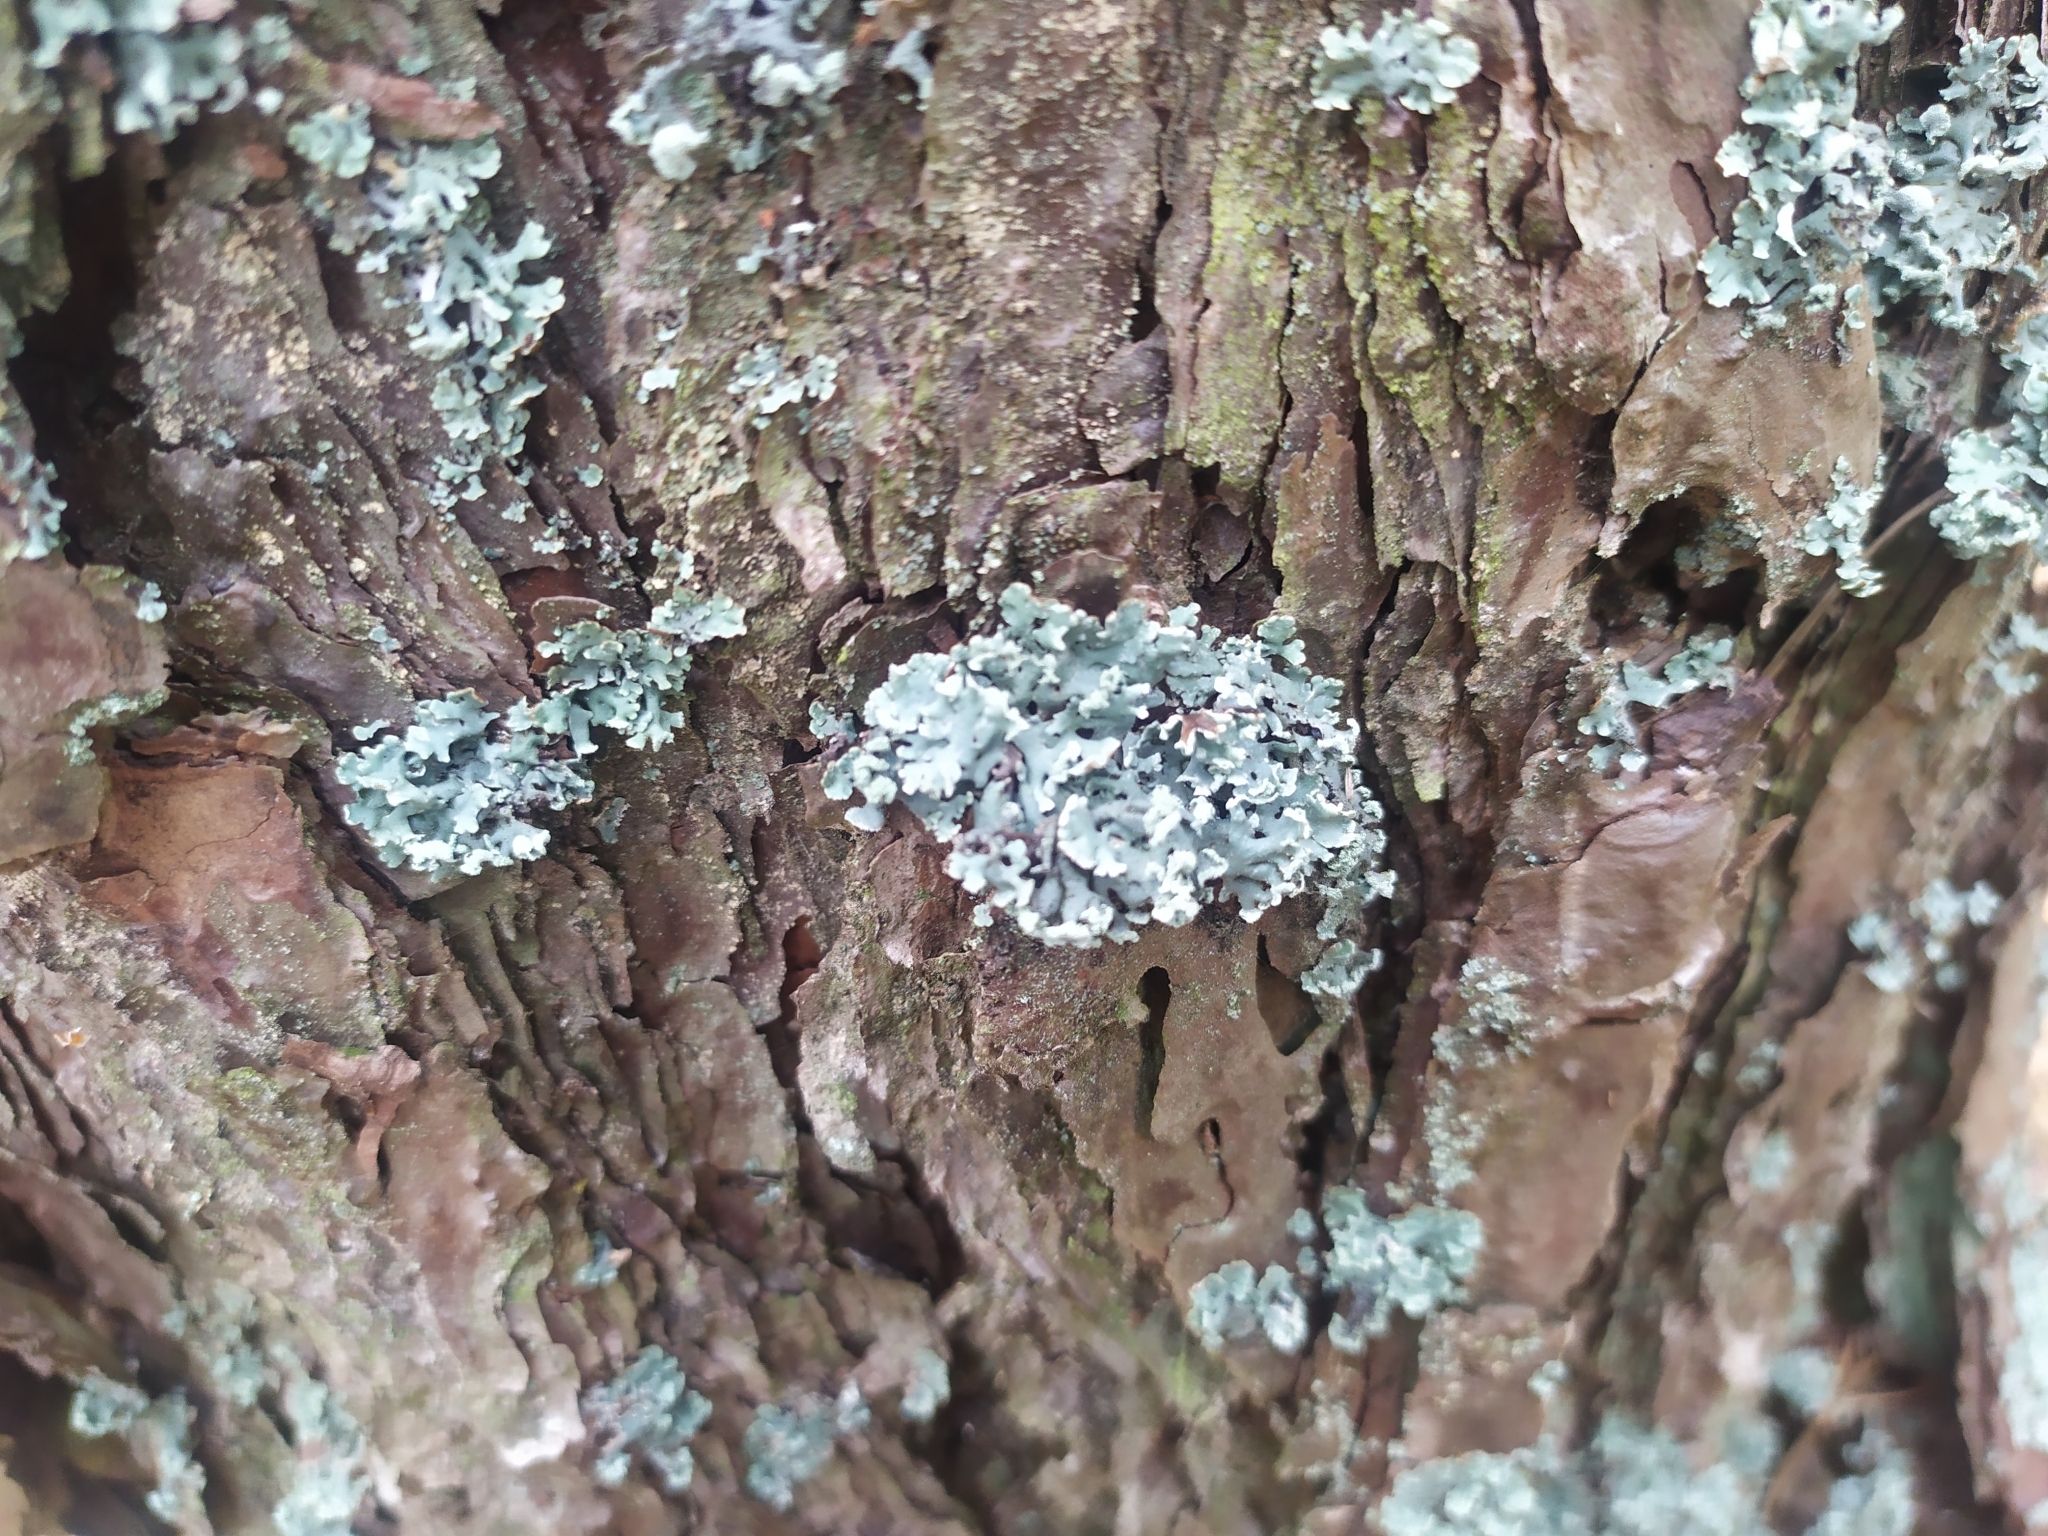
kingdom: Fungi
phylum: Ascomycota
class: Lecanoromycetes
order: Lecanorales
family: Parmeliaceae
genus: Hypogymnia
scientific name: Hypogymnia physodes
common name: Dark crottle
